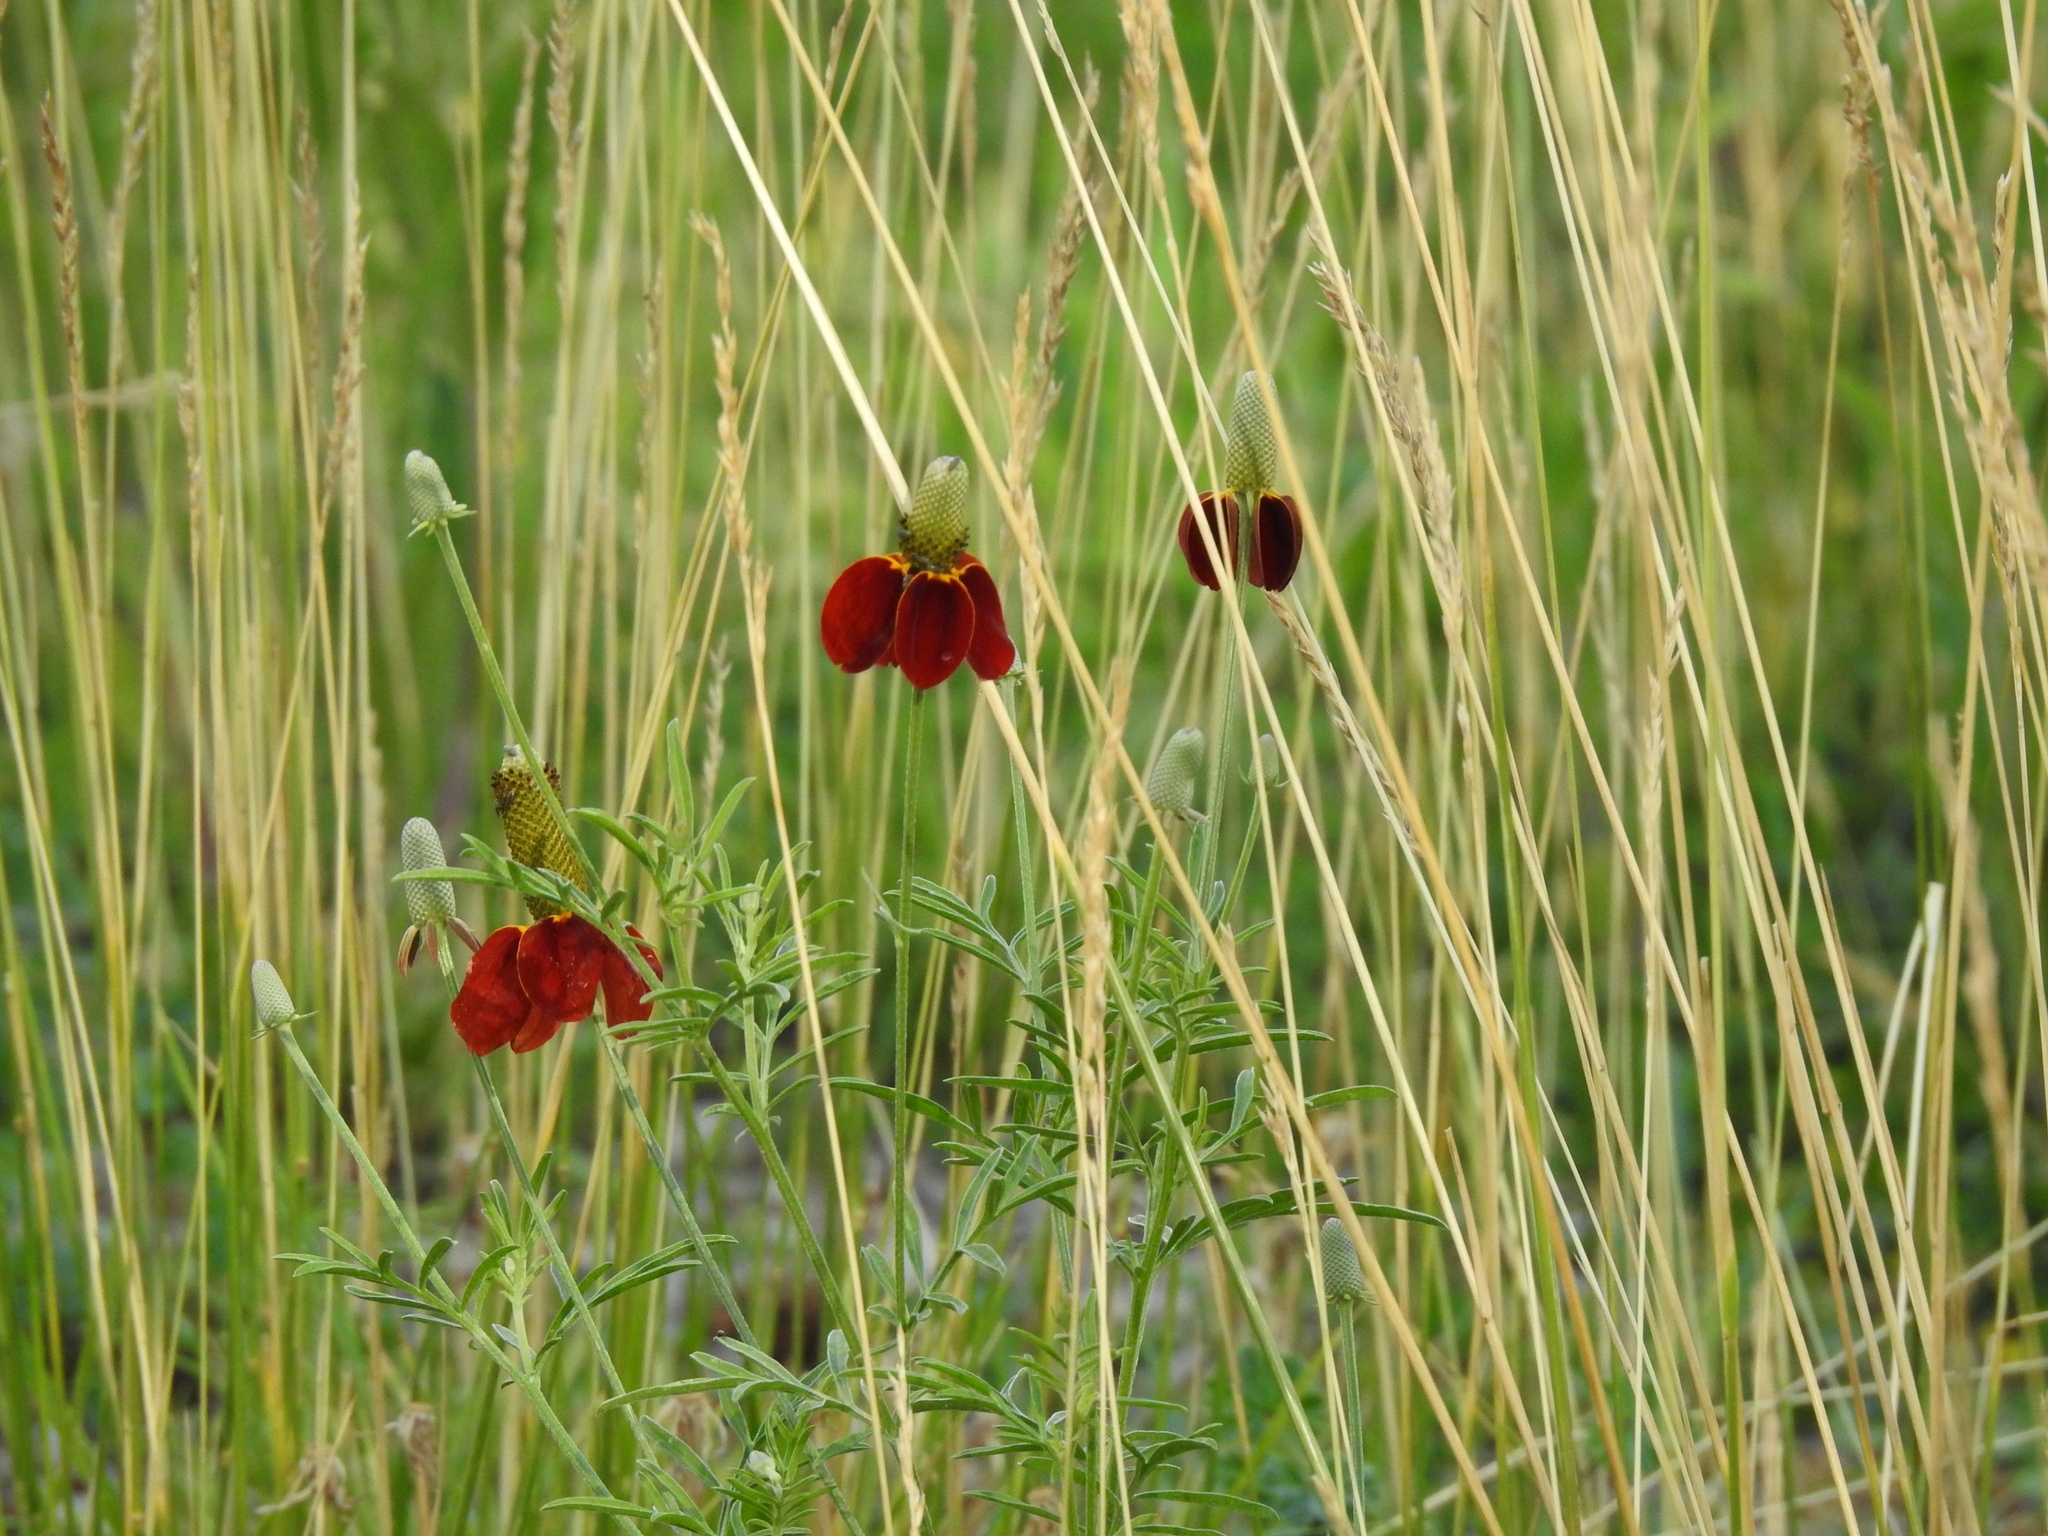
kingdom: Plantae
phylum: Tracheophyta
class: Magnoliopsida
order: Asterales
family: Asteraceae
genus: Ratibida
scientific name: Ratibida columnifera
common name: Prairie coneflower
